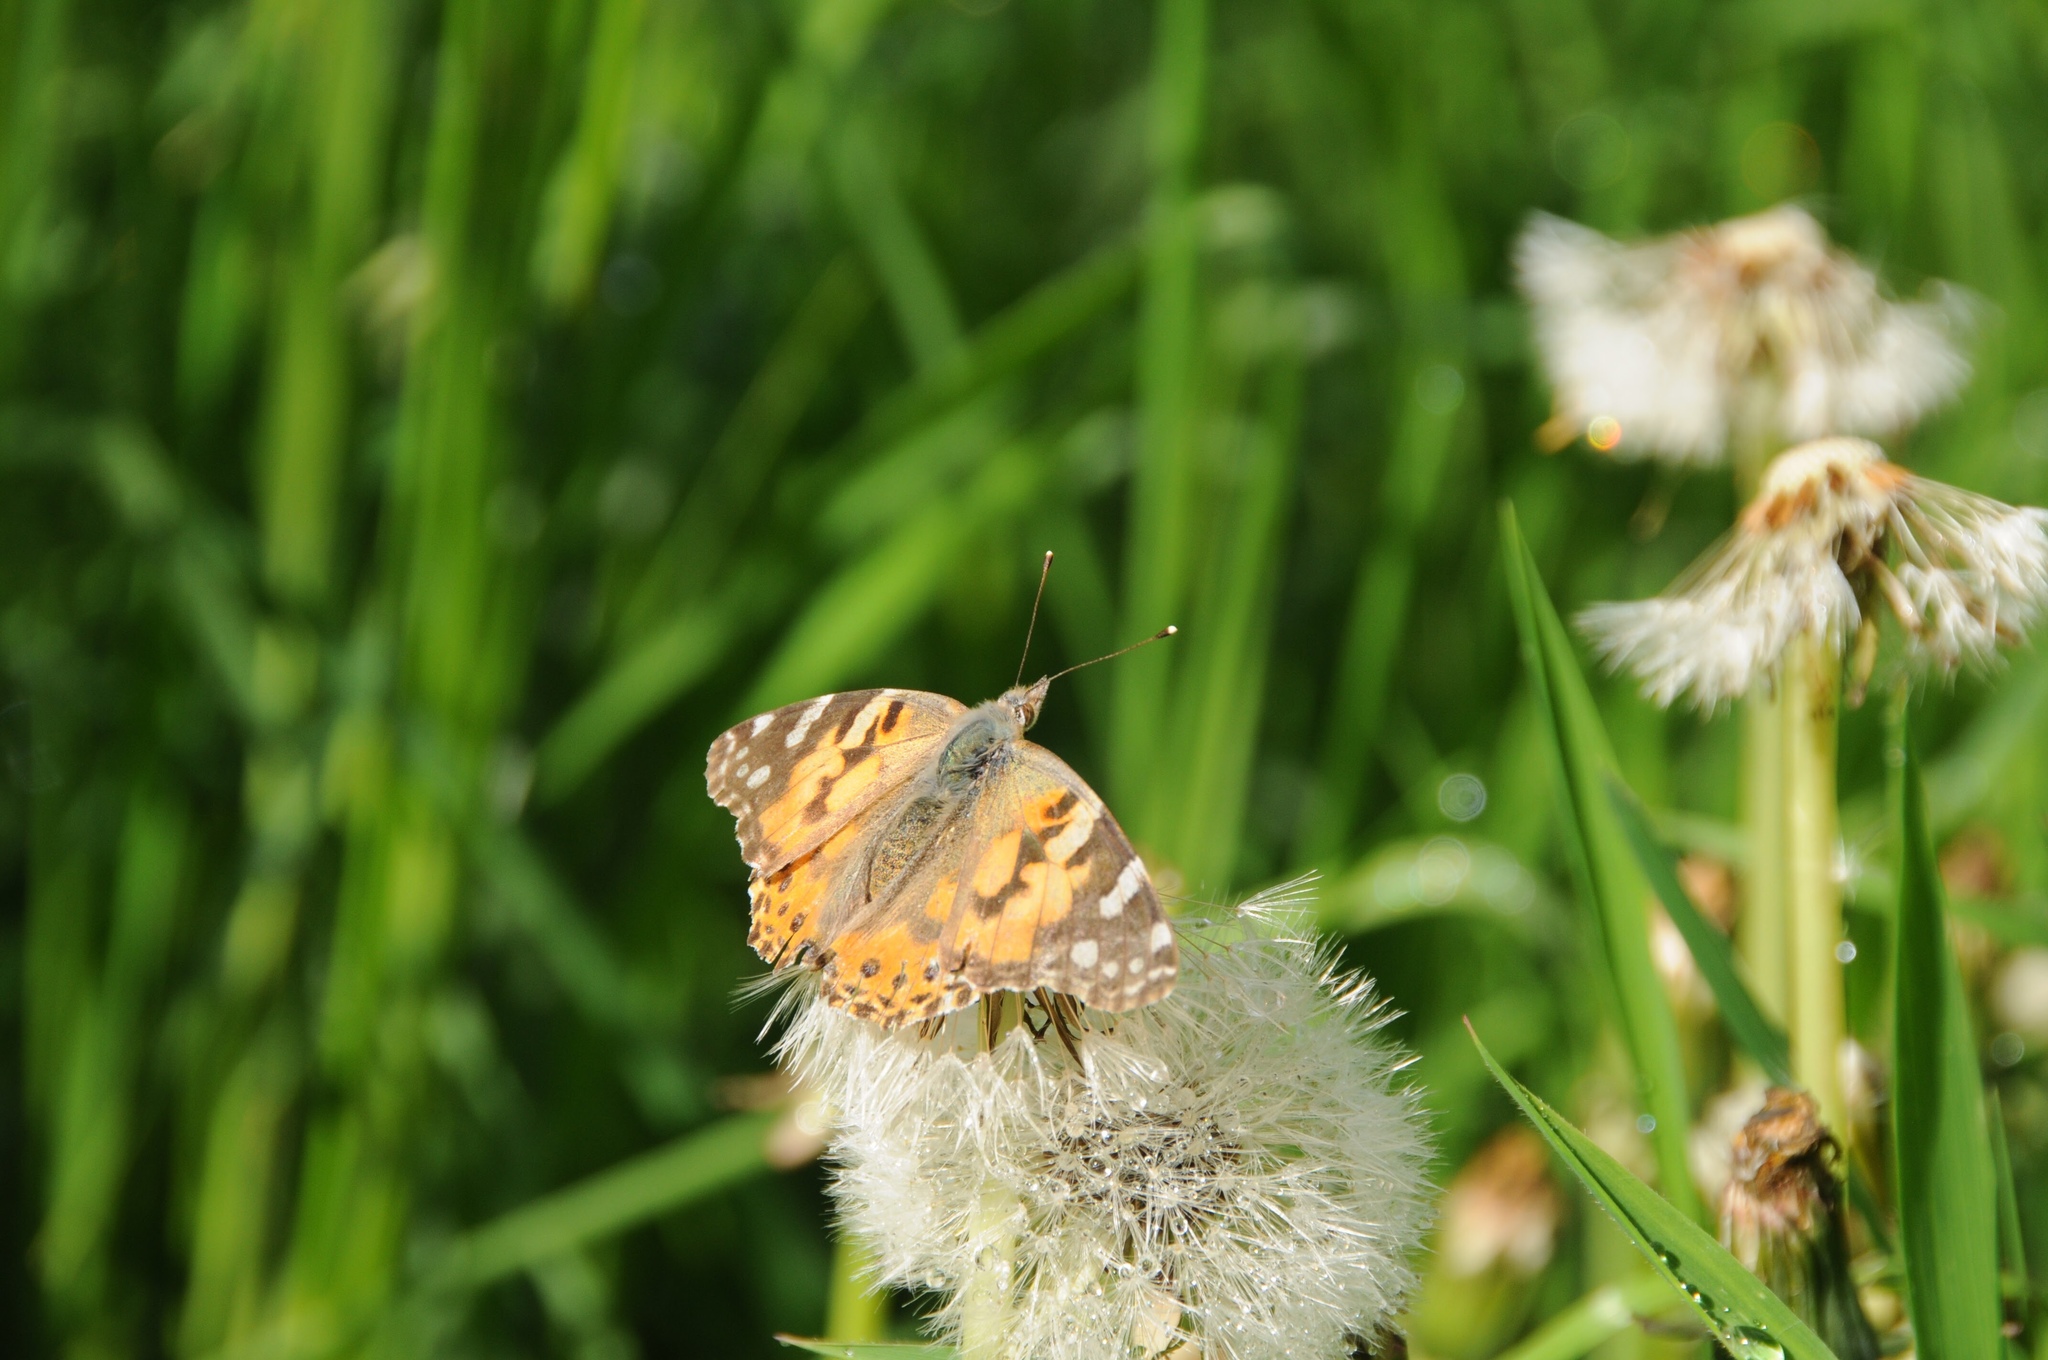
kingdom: Animalia
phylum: Arthropoda
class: Insecta
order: Lepidoptera
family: Nymphalidae
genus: Vanessa
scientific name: Vanessa cardui
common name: Painted lady
